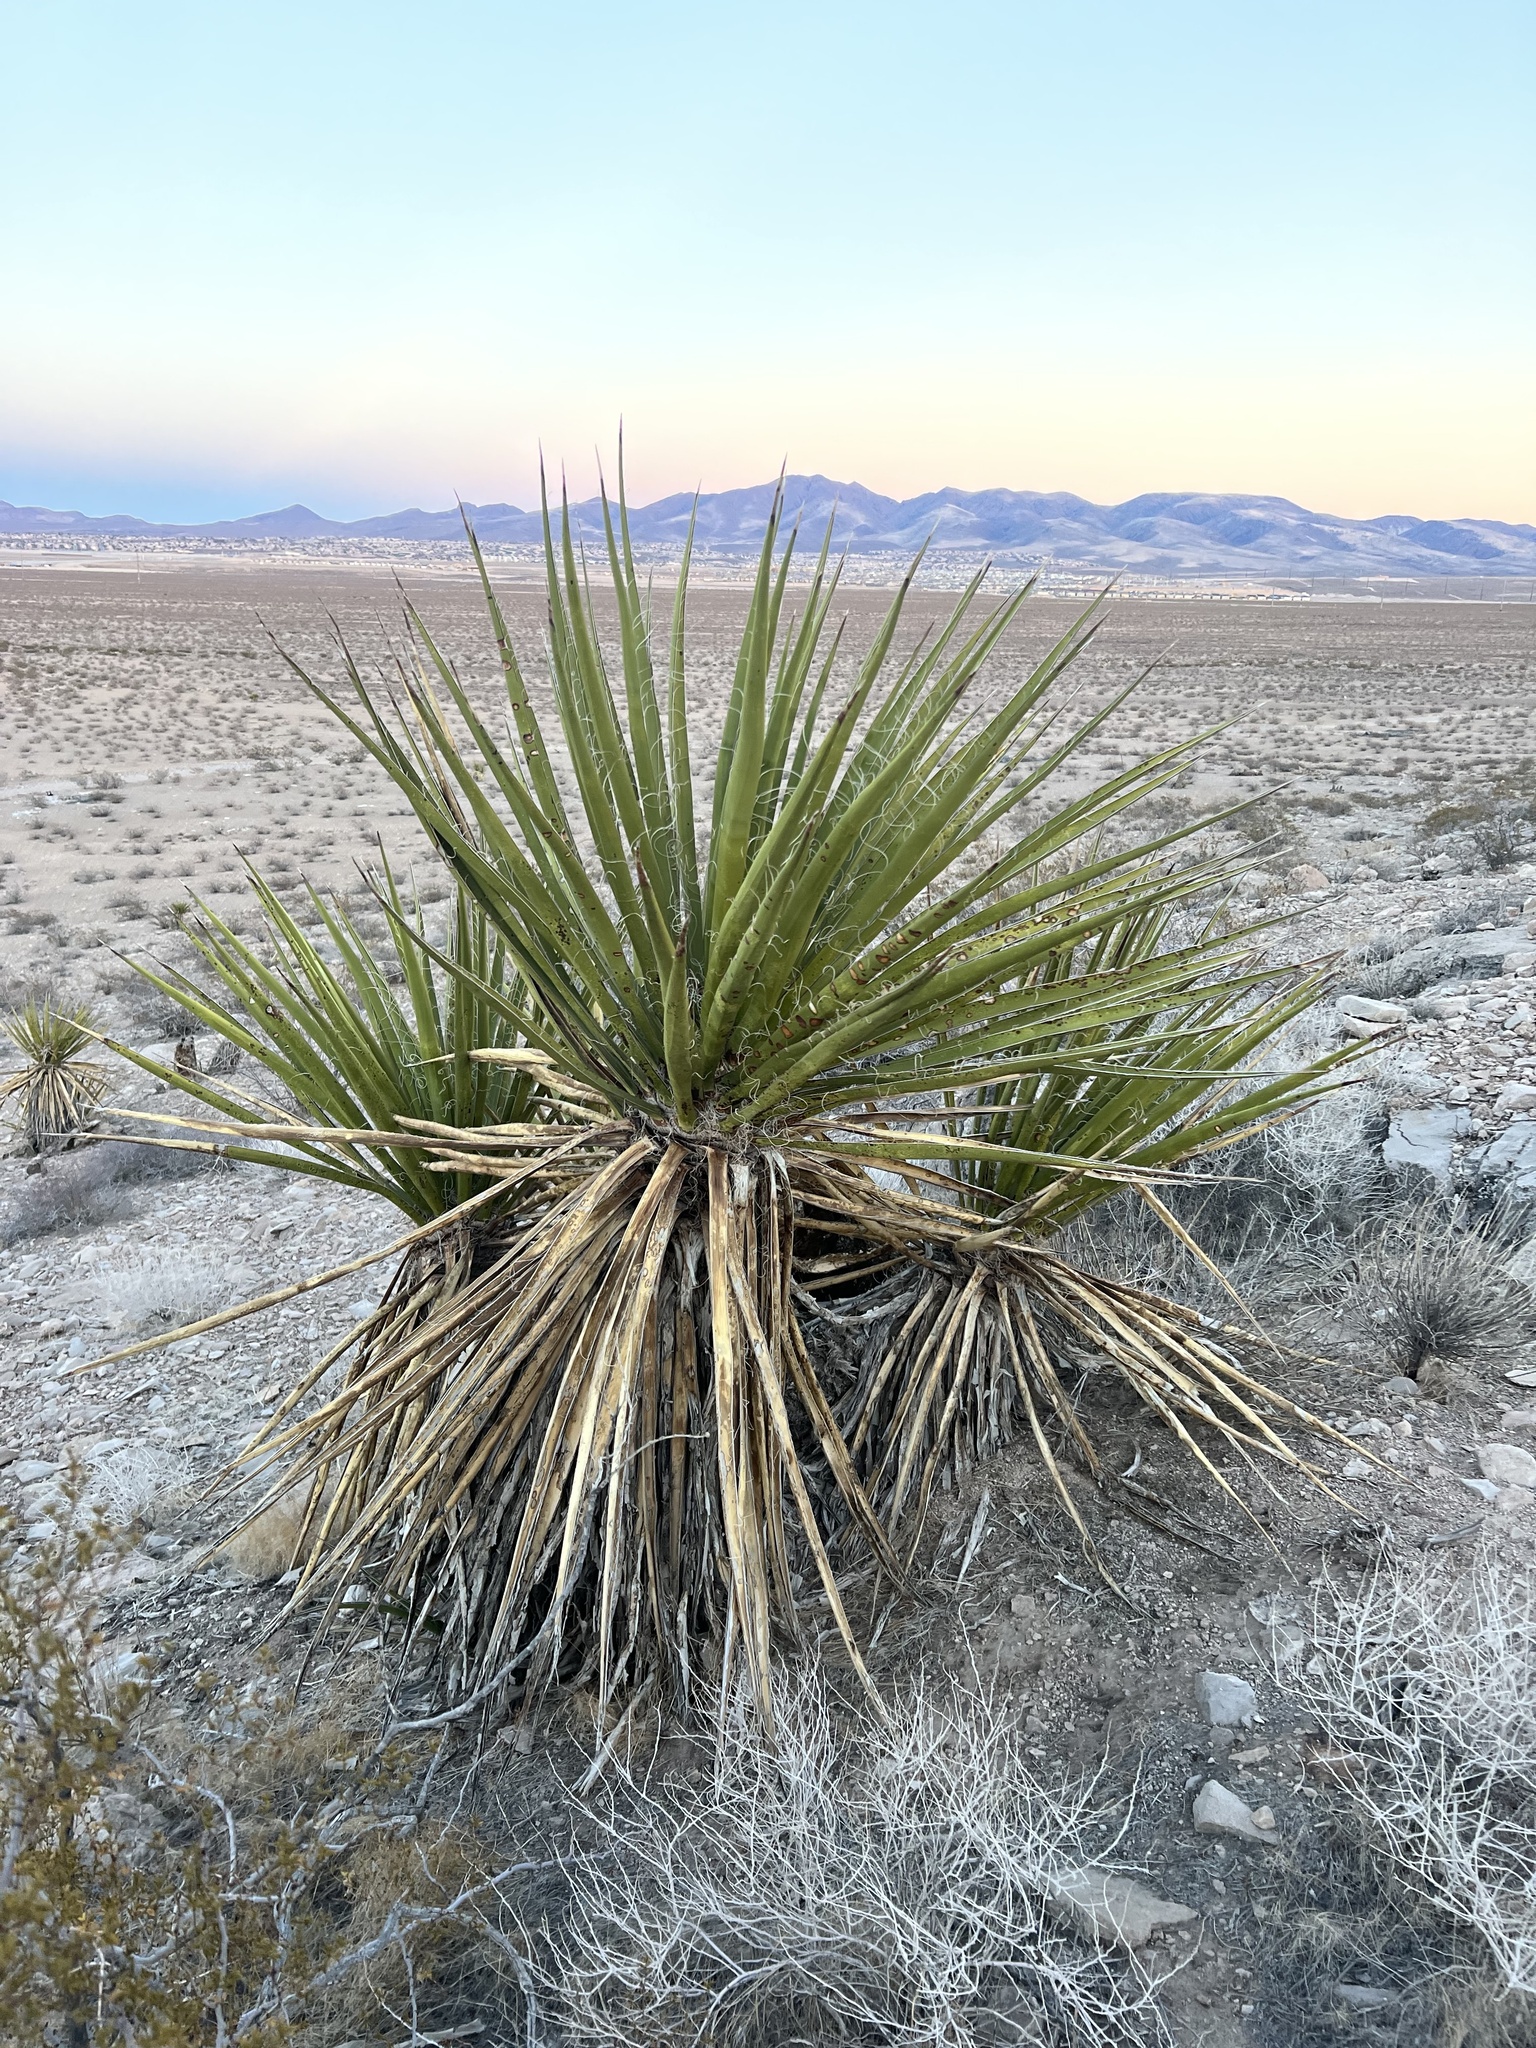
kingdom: Plantae
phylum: Tracheophyta
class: Liliopsida
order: Asparagales
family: Asparagaceae
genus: Yucca
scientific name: Yucca schidigera
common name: Mojave yucca
